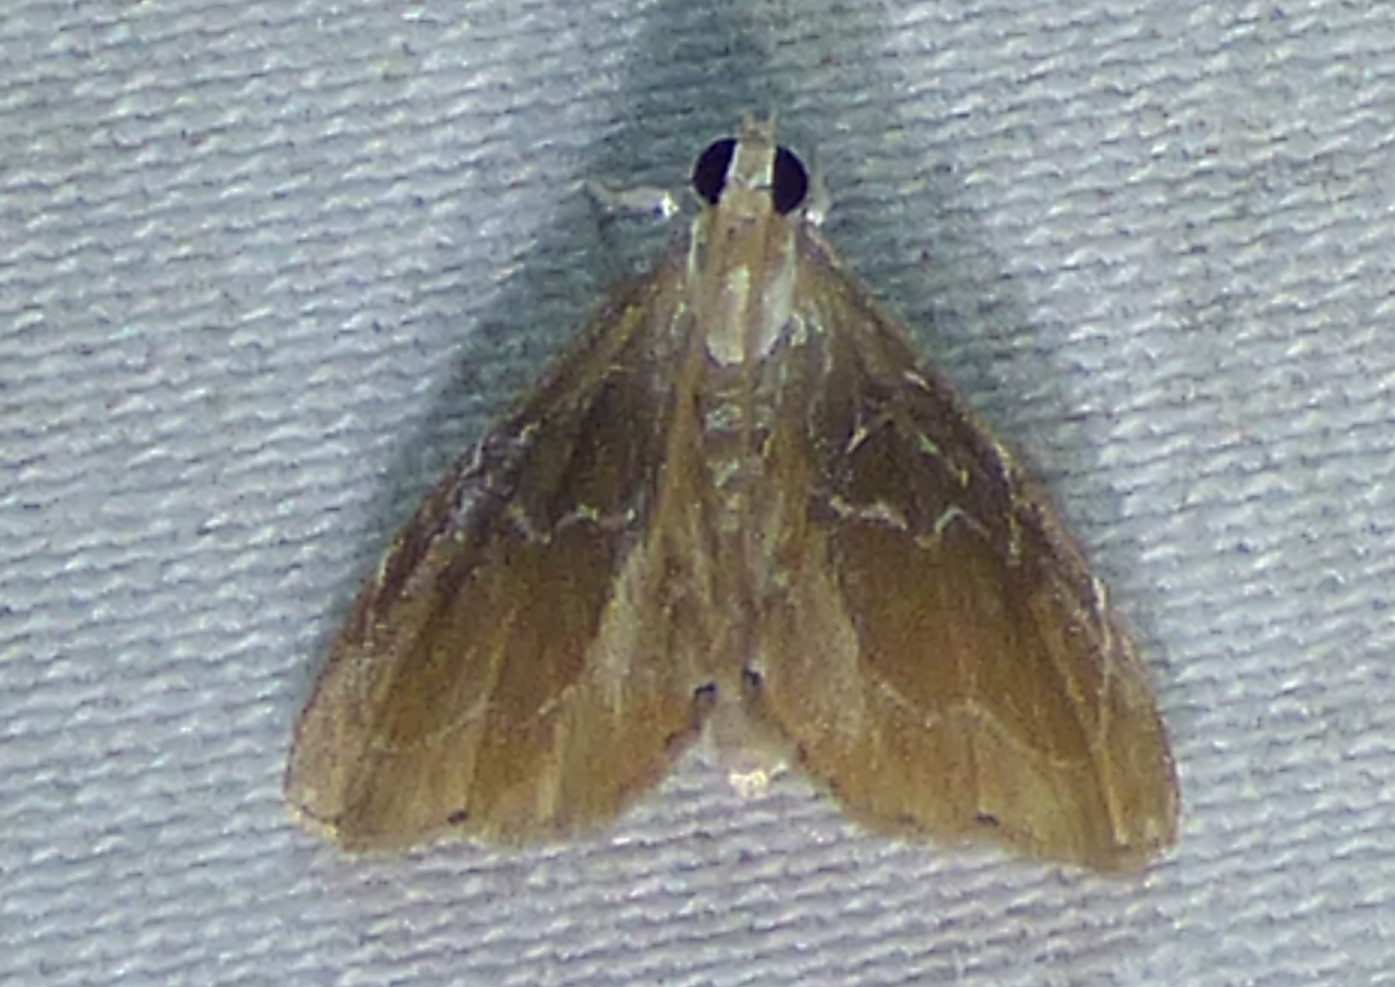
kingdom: Animalia
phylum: Arthropoda
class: Insecta
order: Lepidoptera
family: Crambidae
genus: Glaphyria
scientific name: Glaphyria peremptalis
